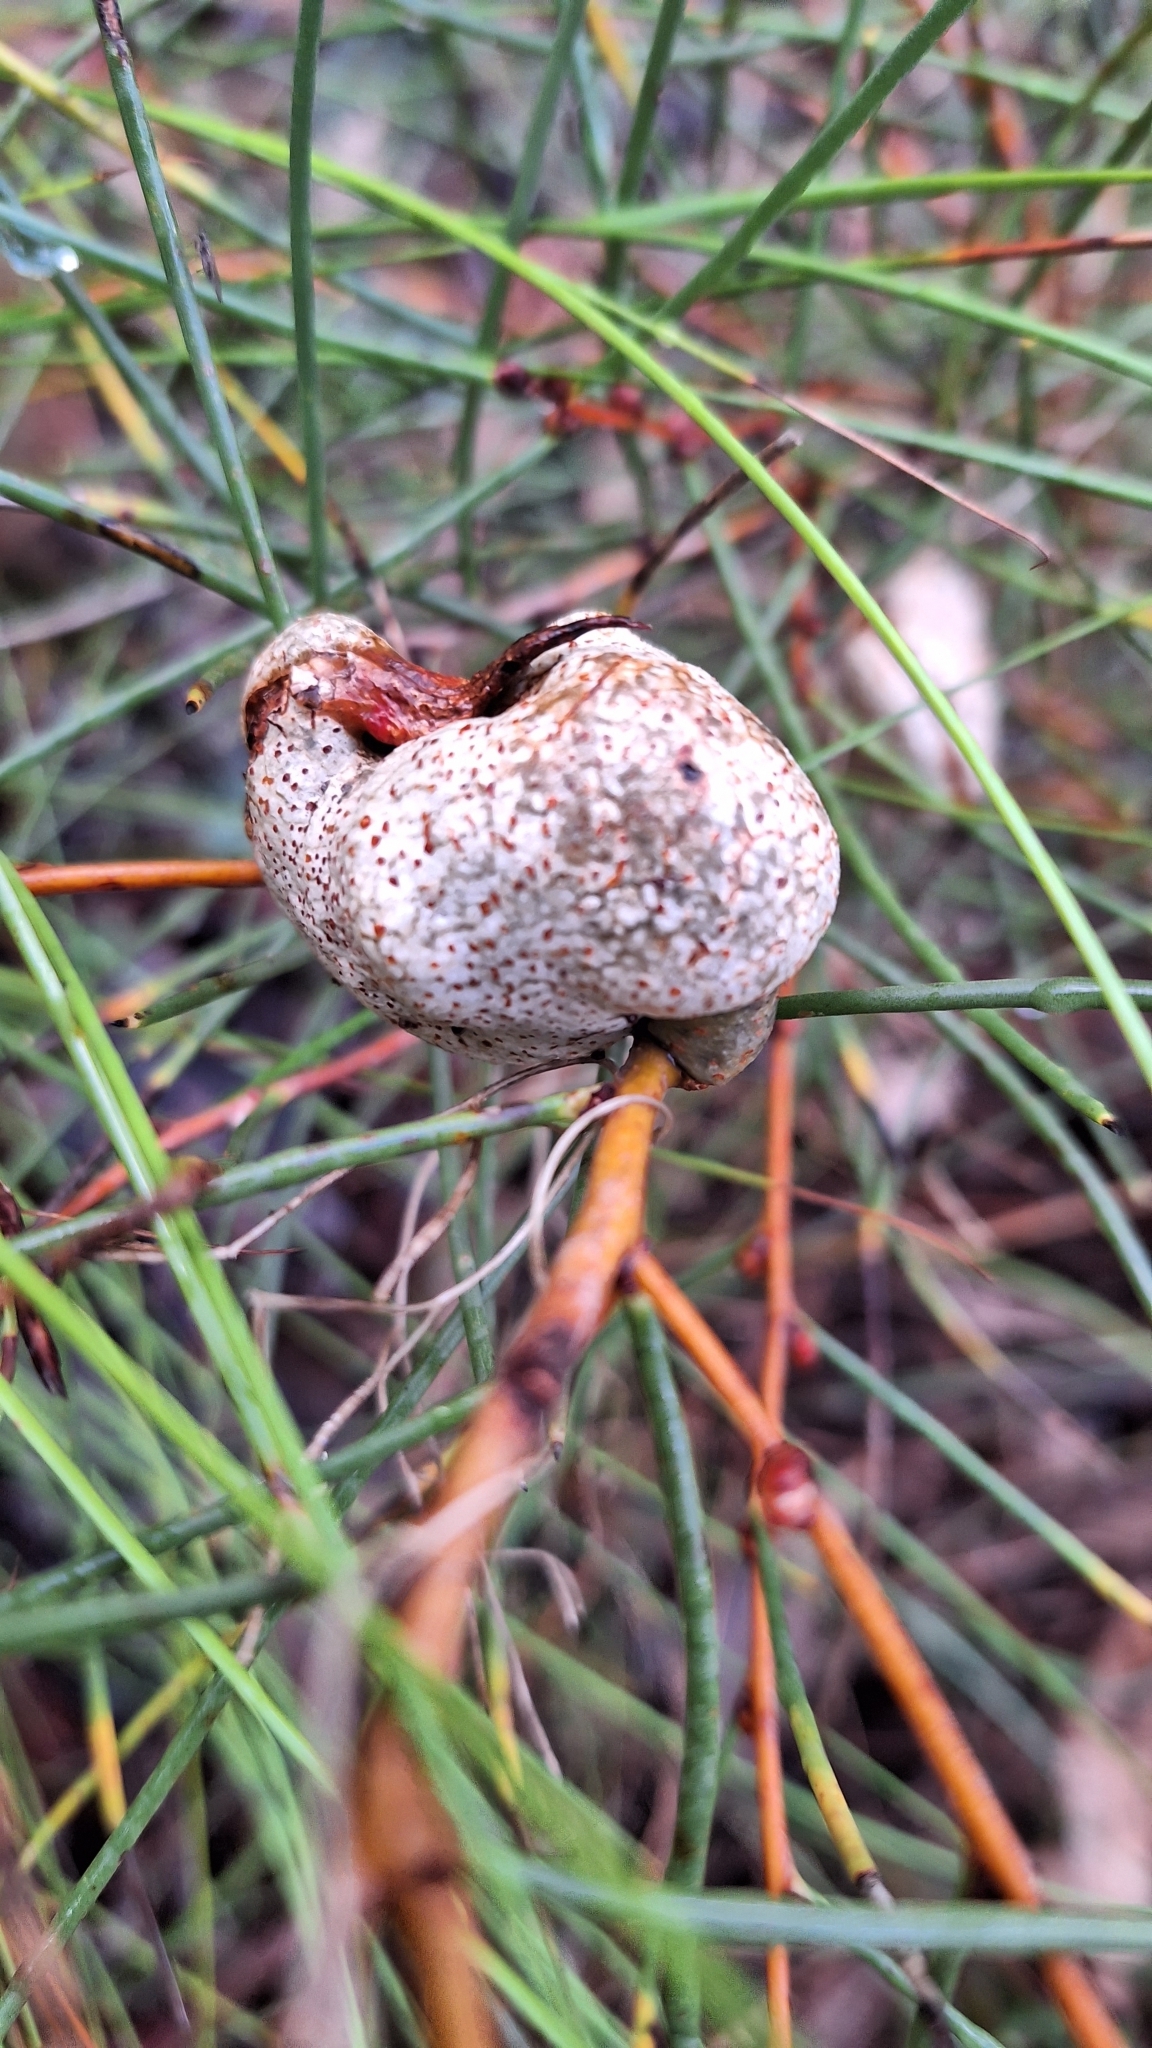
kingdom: Plantae
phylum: Tracheophyta
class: Magnoliopsida
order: Proteales
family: Proteaceae
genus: Hakea
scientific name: Hakea rostrata
